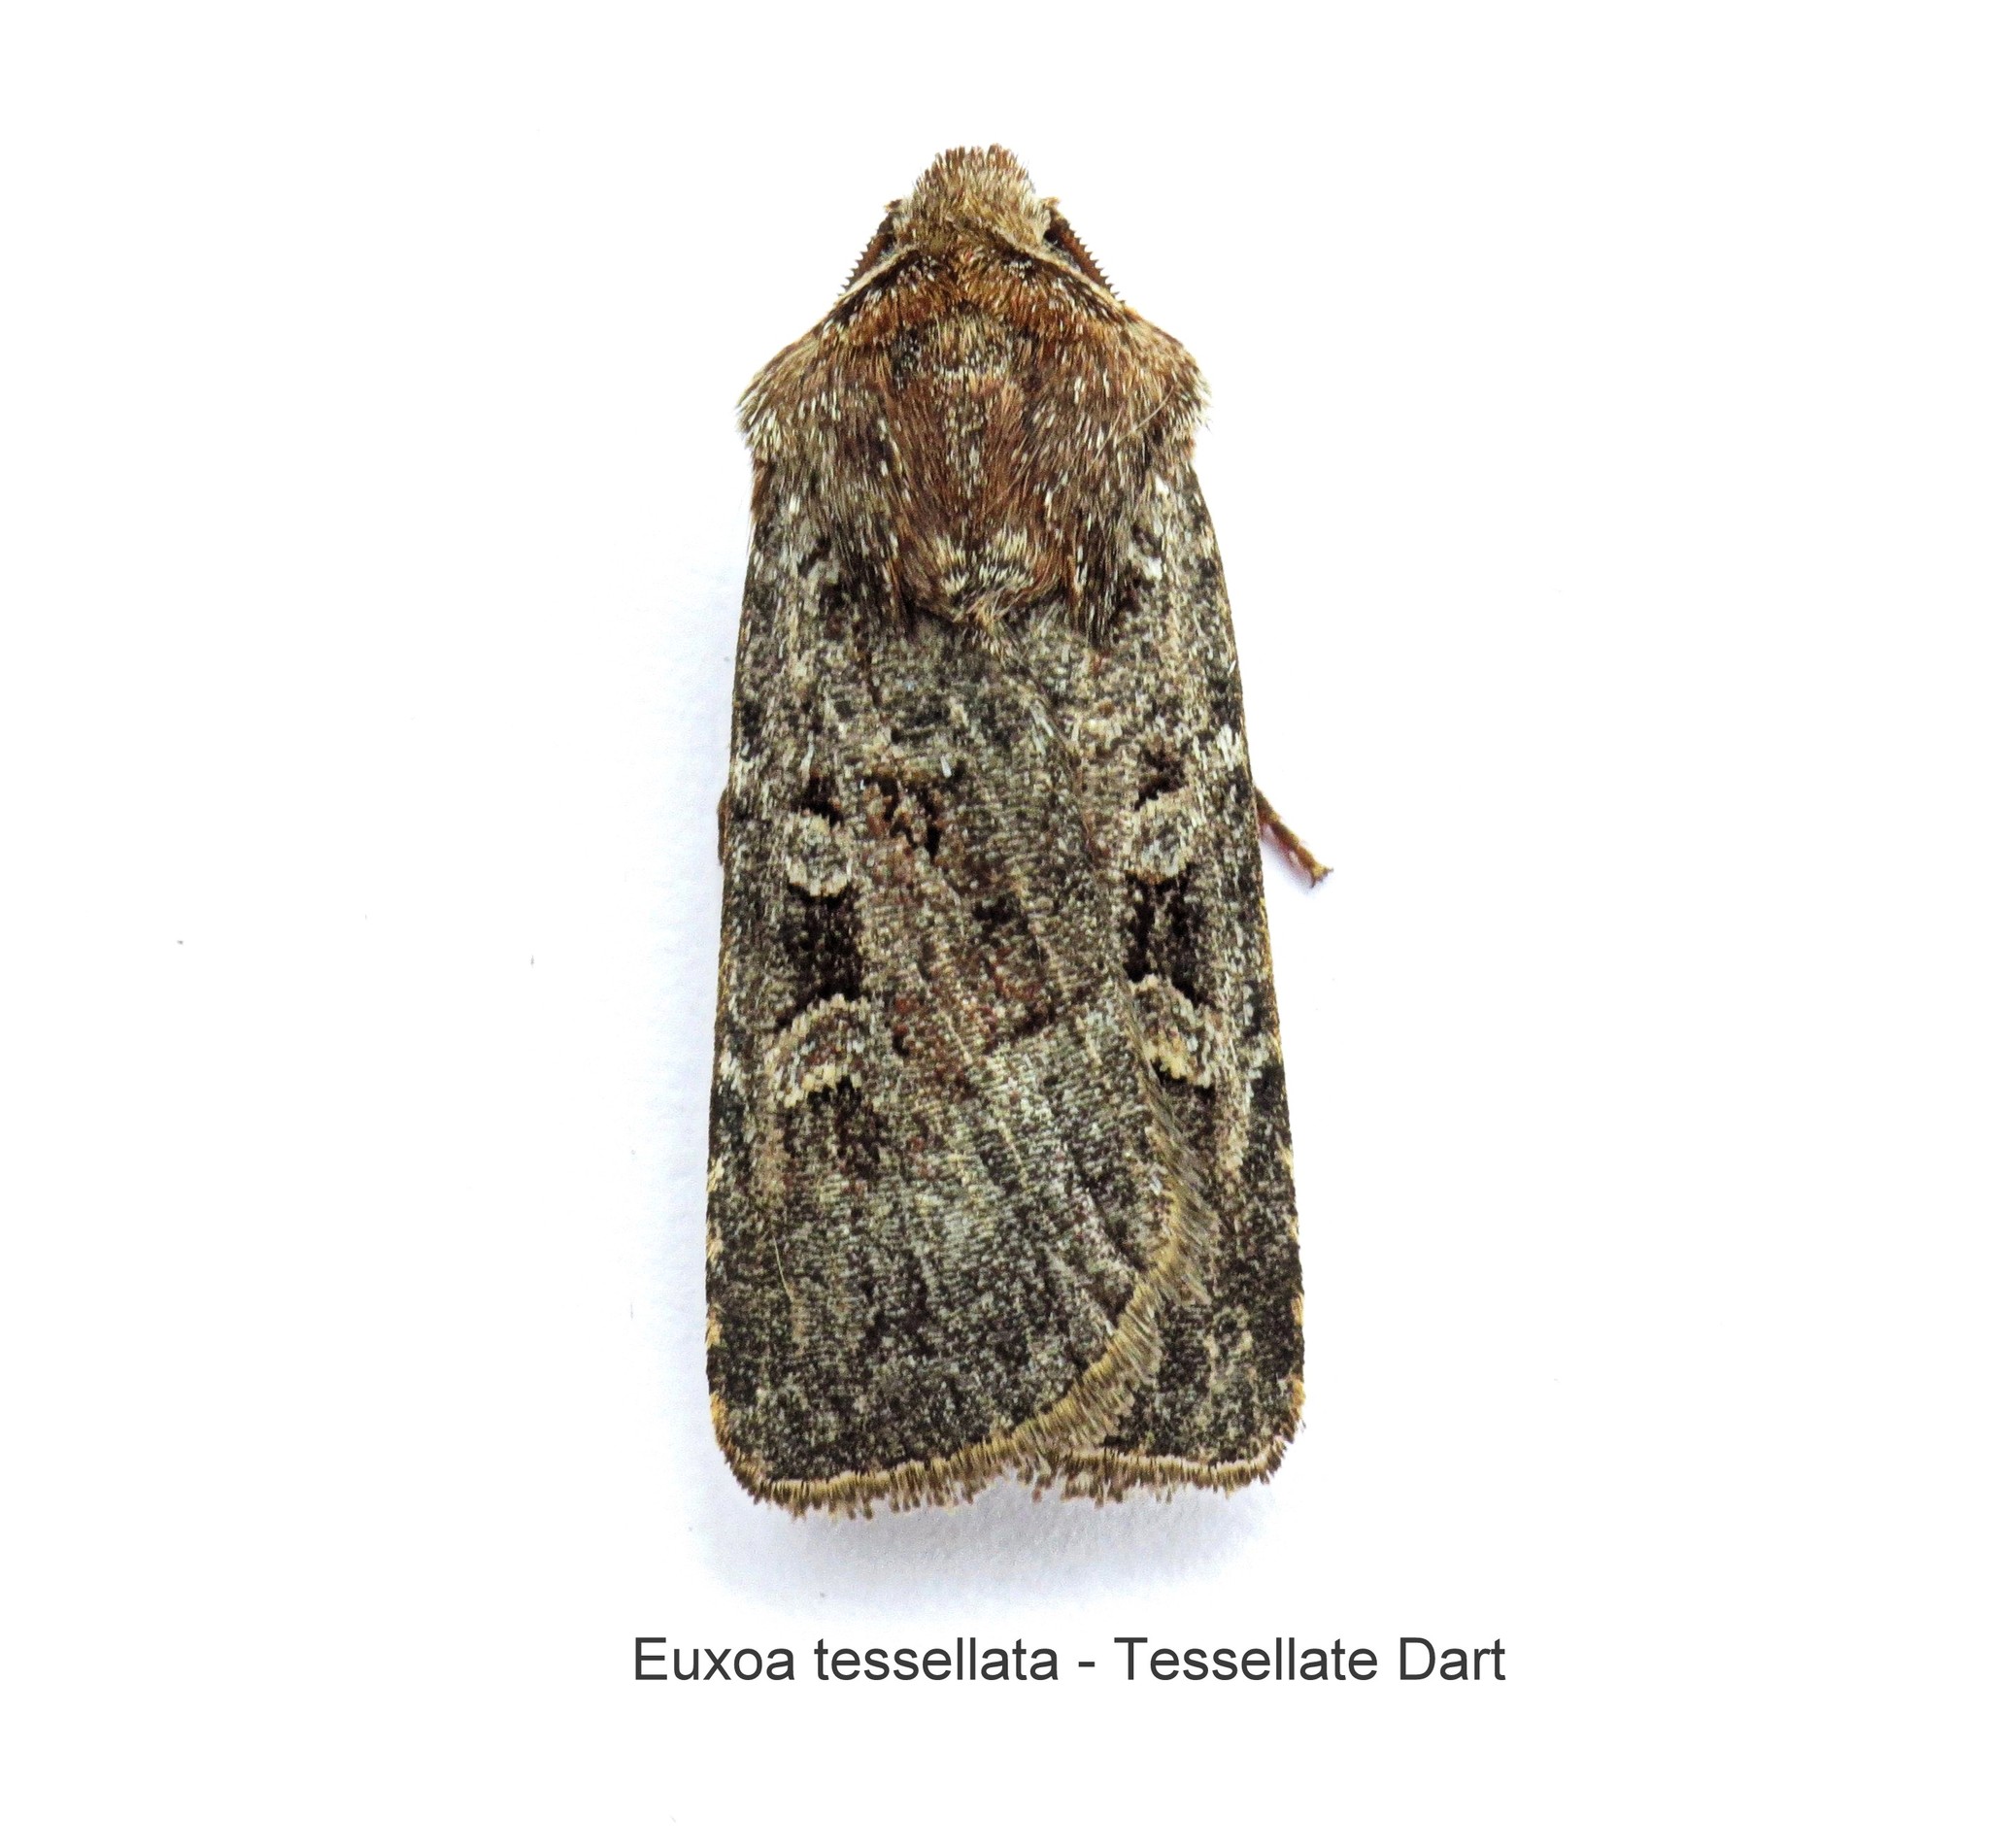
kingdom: Animalia
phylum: Arthropoda
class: Insecta
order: Lepidoptera
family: Noctuidae
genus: Euxoa
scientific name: Euxoa tessellata
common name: Striped cutworm
